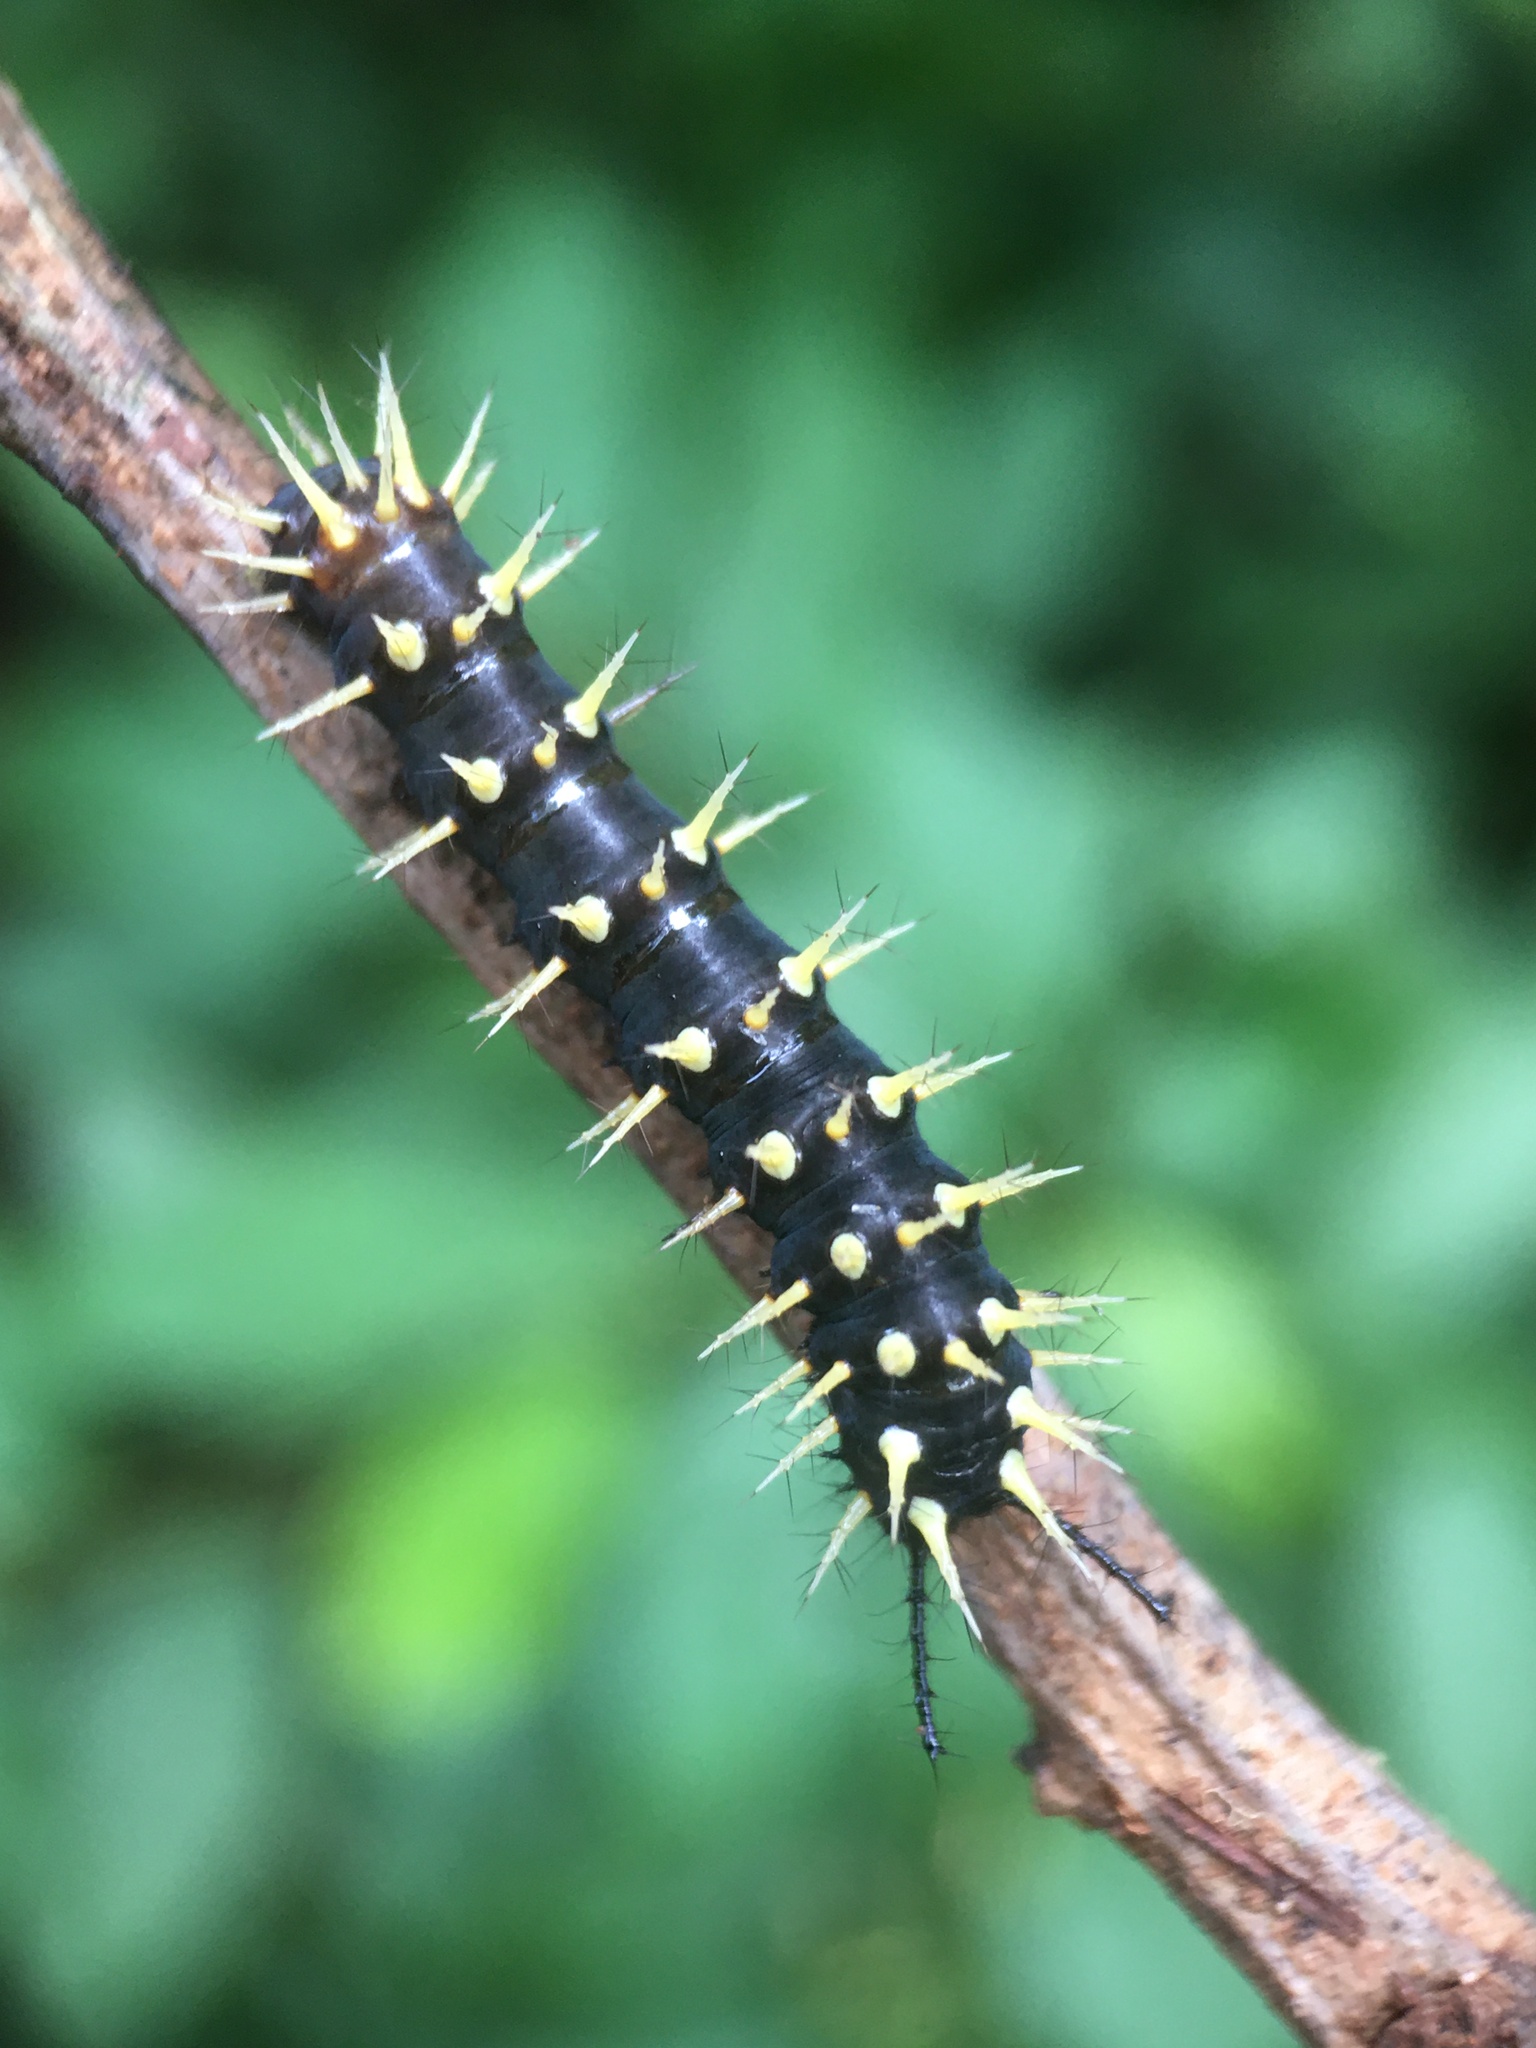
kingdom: Animalia
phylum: Arthropoda
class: Insecta
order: Lepidoptera
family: Nymphalidae
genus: Siproeta
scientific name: Siproeta epaphus
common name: Rusty-tipped page
